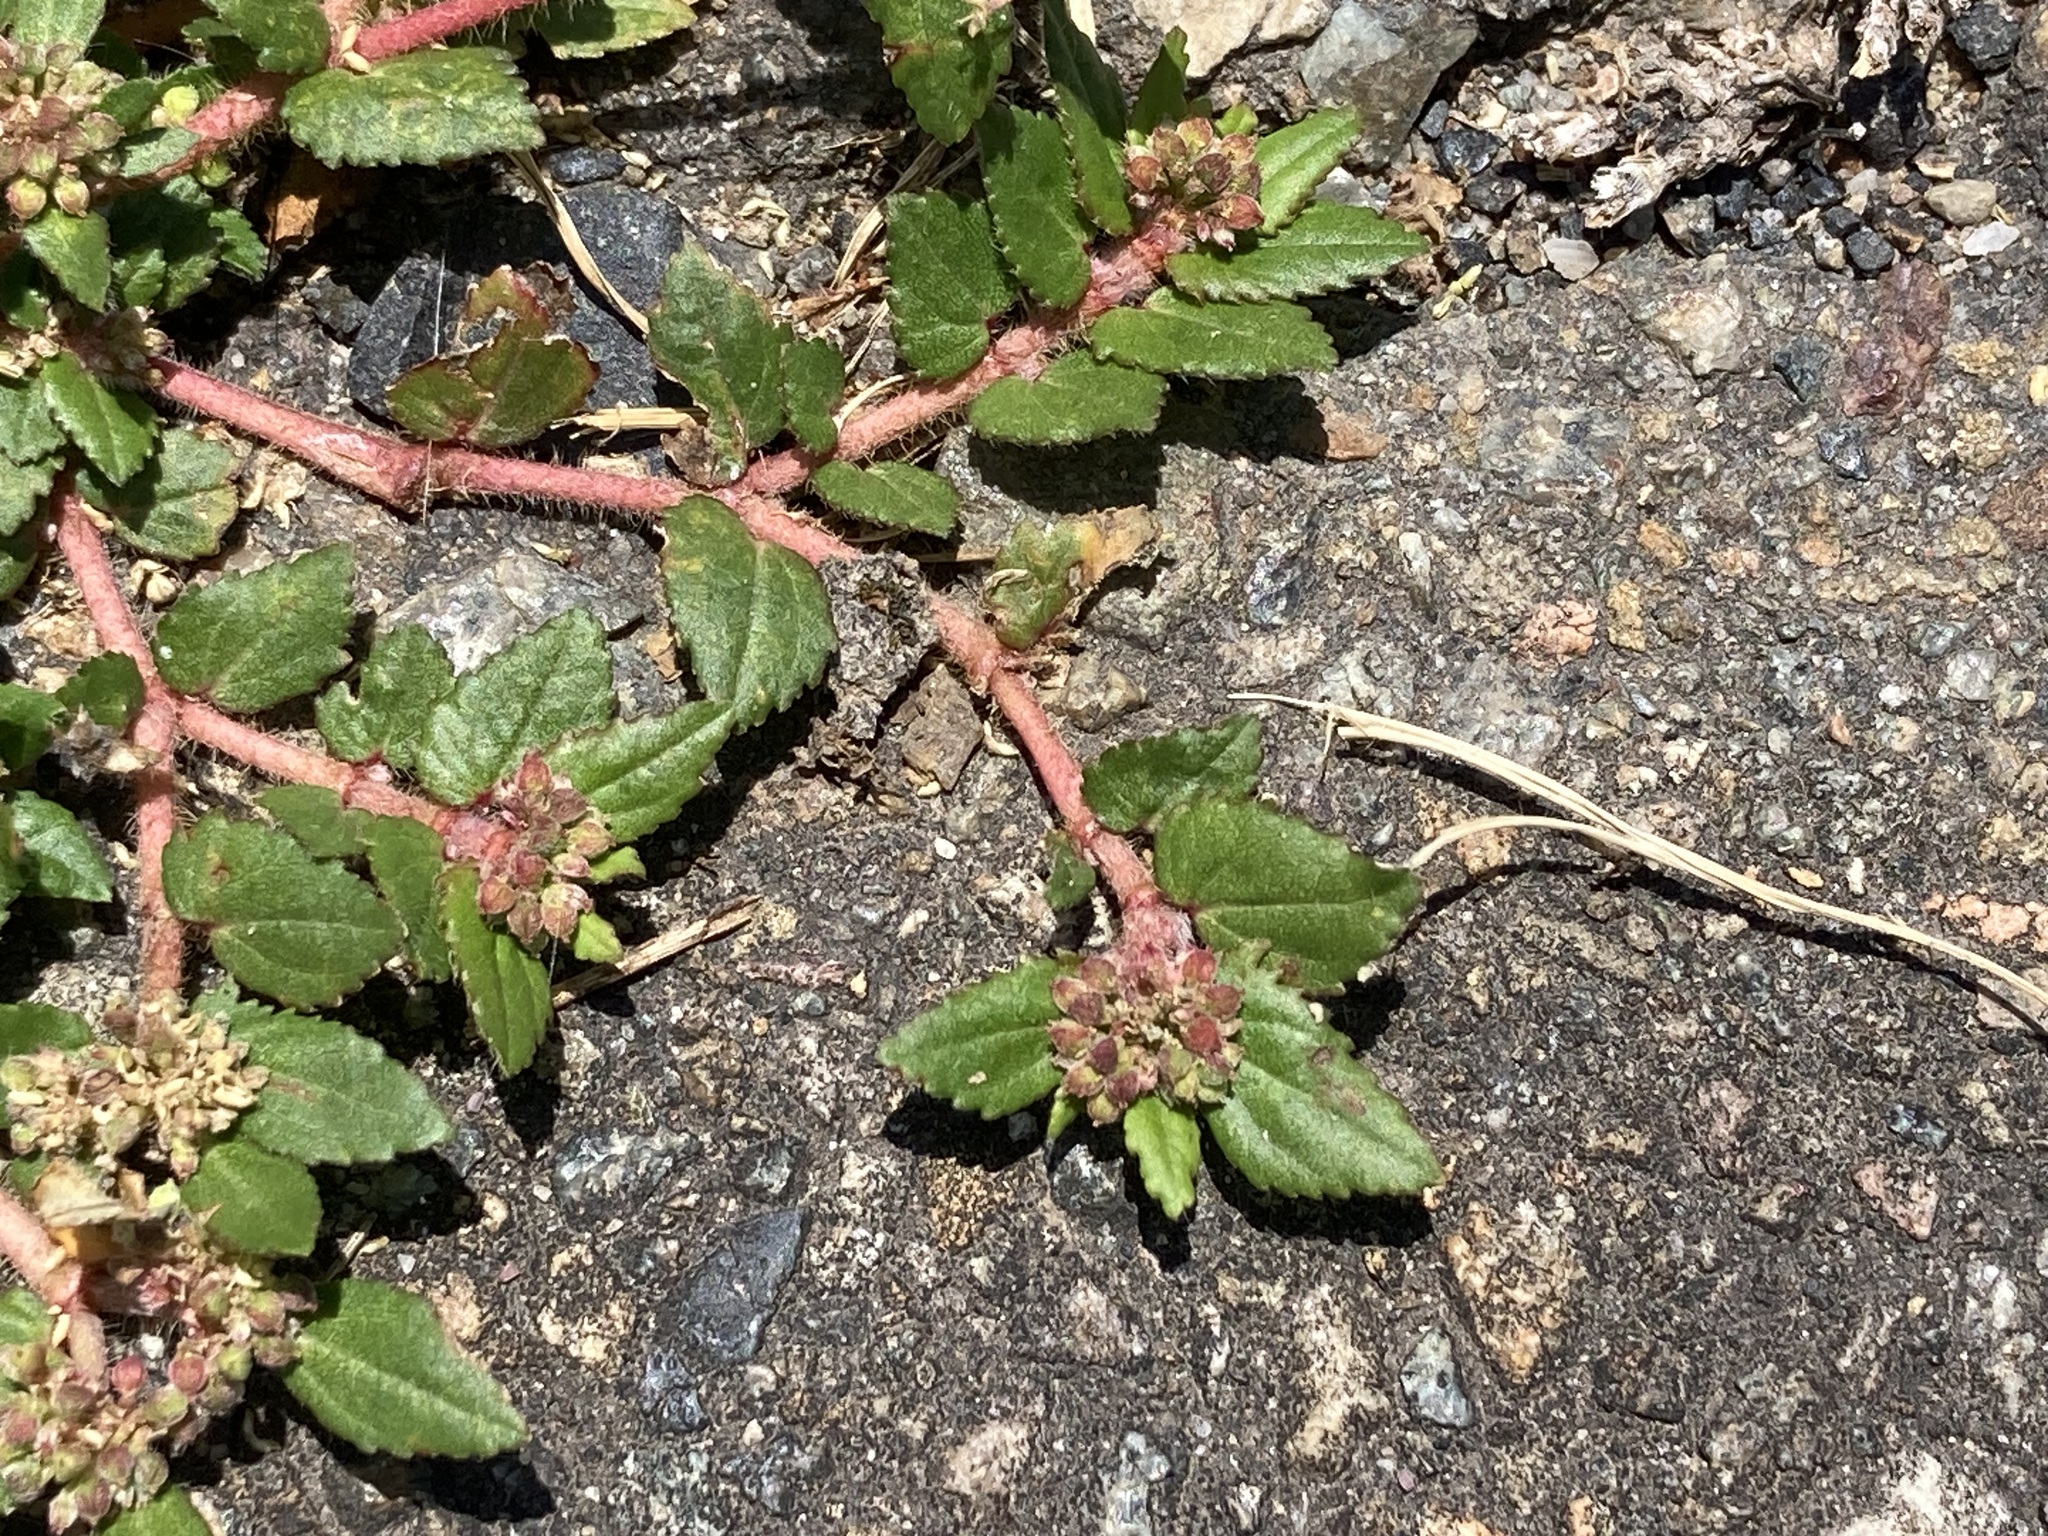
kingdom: Plantae
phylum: Tracheophyta
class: Magnoliopsida
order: Malpighiales
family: Euphorbiaceae
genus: Euphorbia
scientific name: Euphorbia ophthalmica
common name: Florida hammock sandmat
